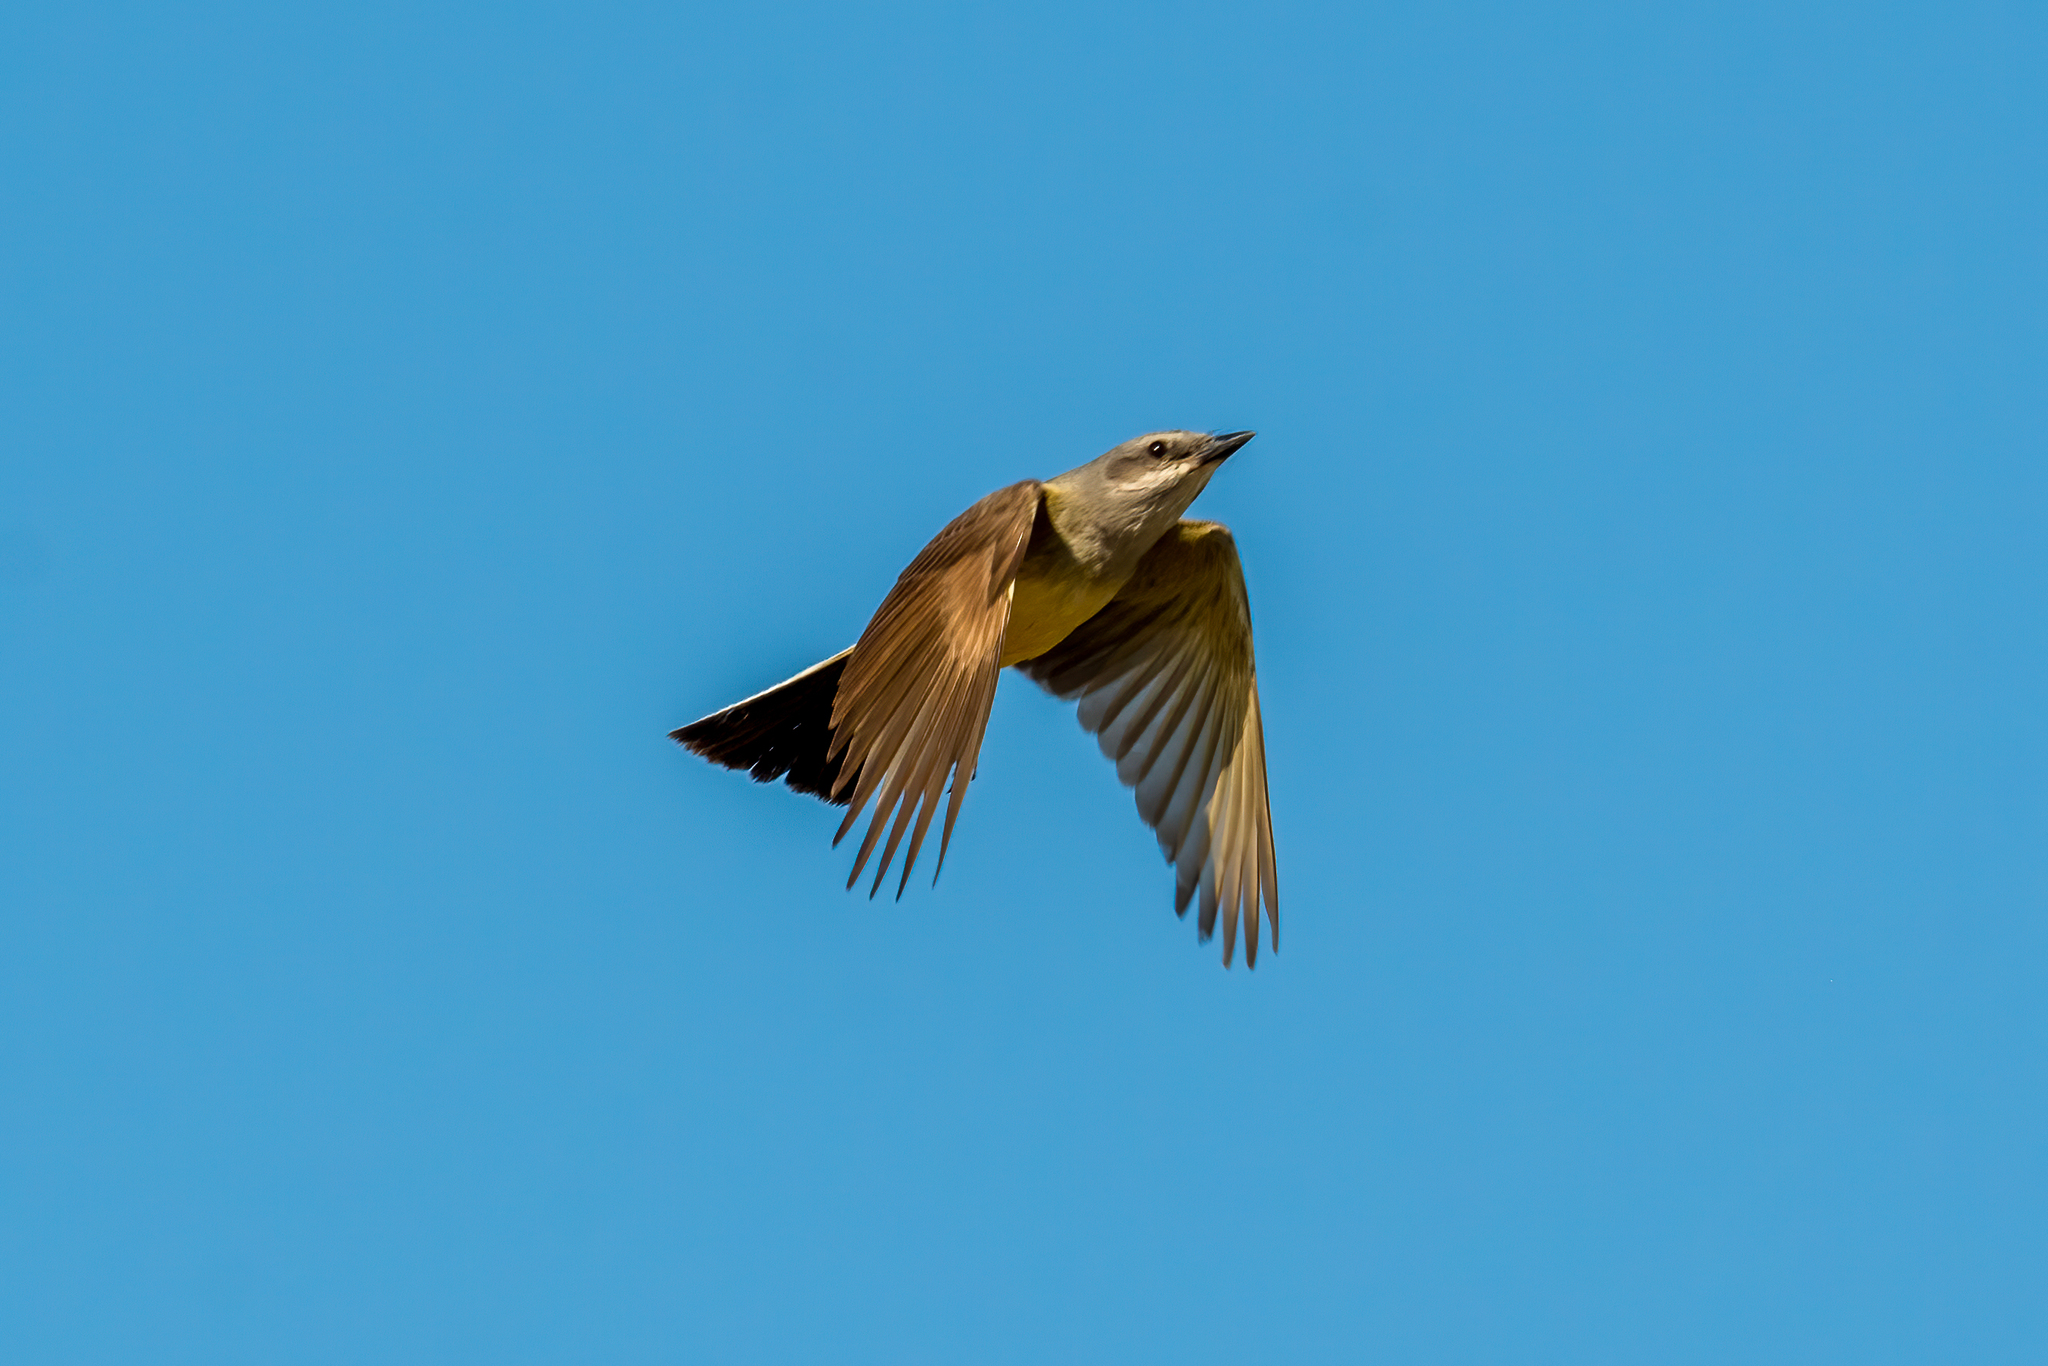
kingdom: Animalia
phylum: Chordata
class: Aves
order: Passeriformes
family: Tyrannidae
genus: Tyrannus
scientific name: Tyrannus verticalis
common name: Western kingbird
